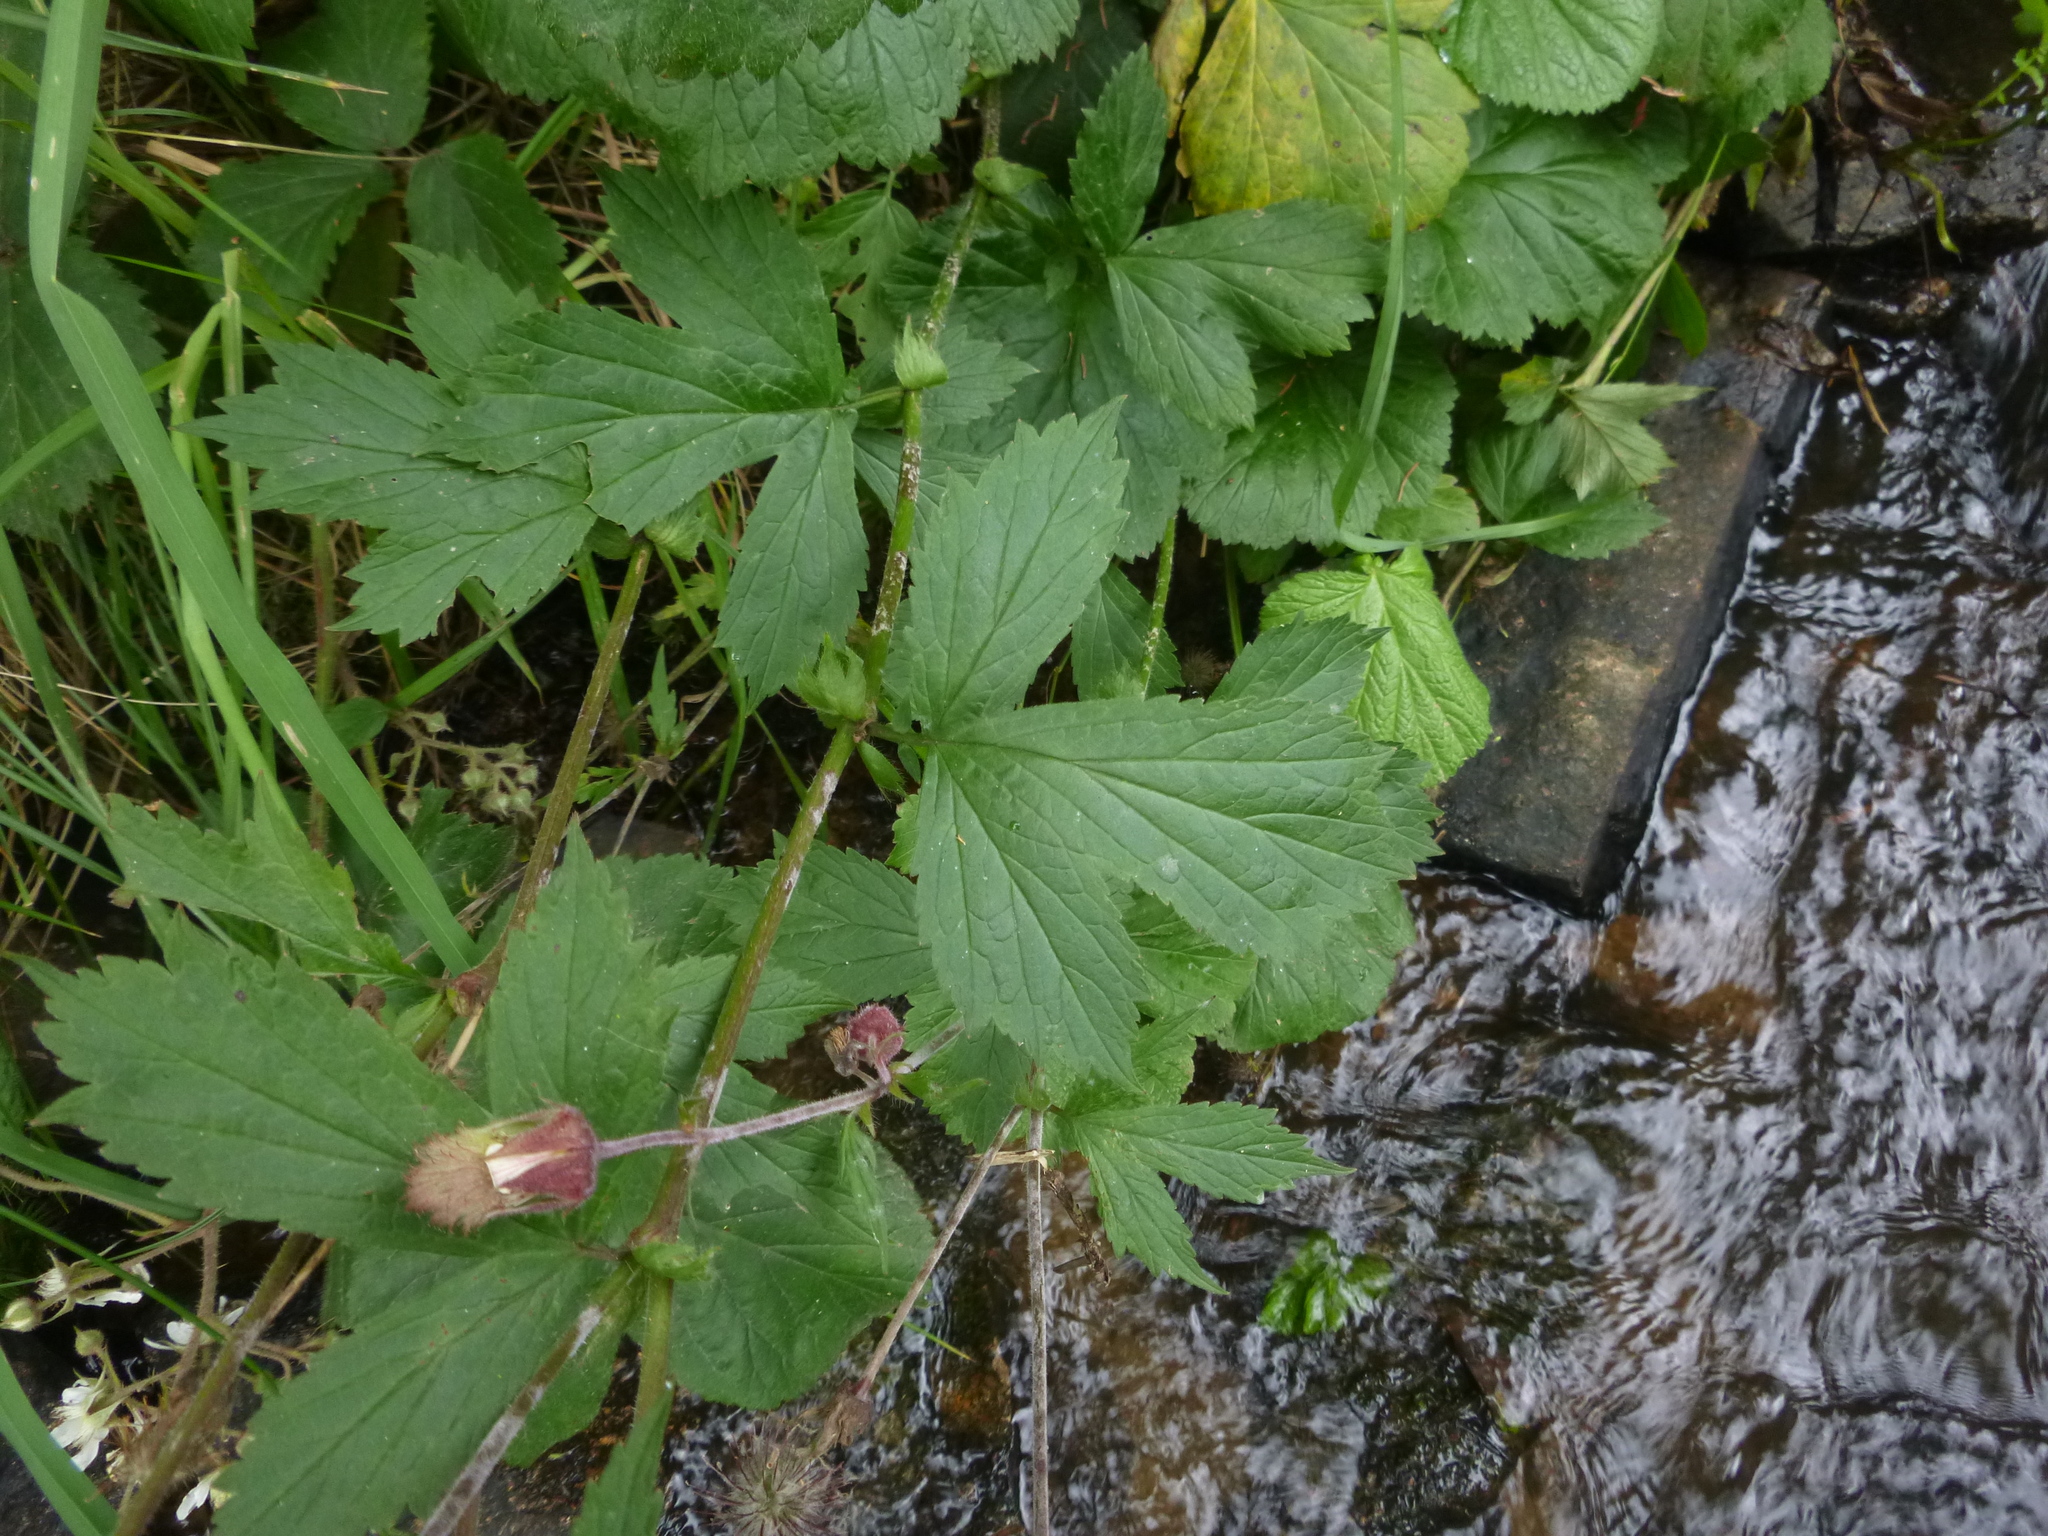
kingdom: Plantae
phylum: Tracheophyta
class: Magnoliopsida
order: Rosales
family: Rosaceae
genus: Geum
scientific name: Geum rivale
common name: Water avens
